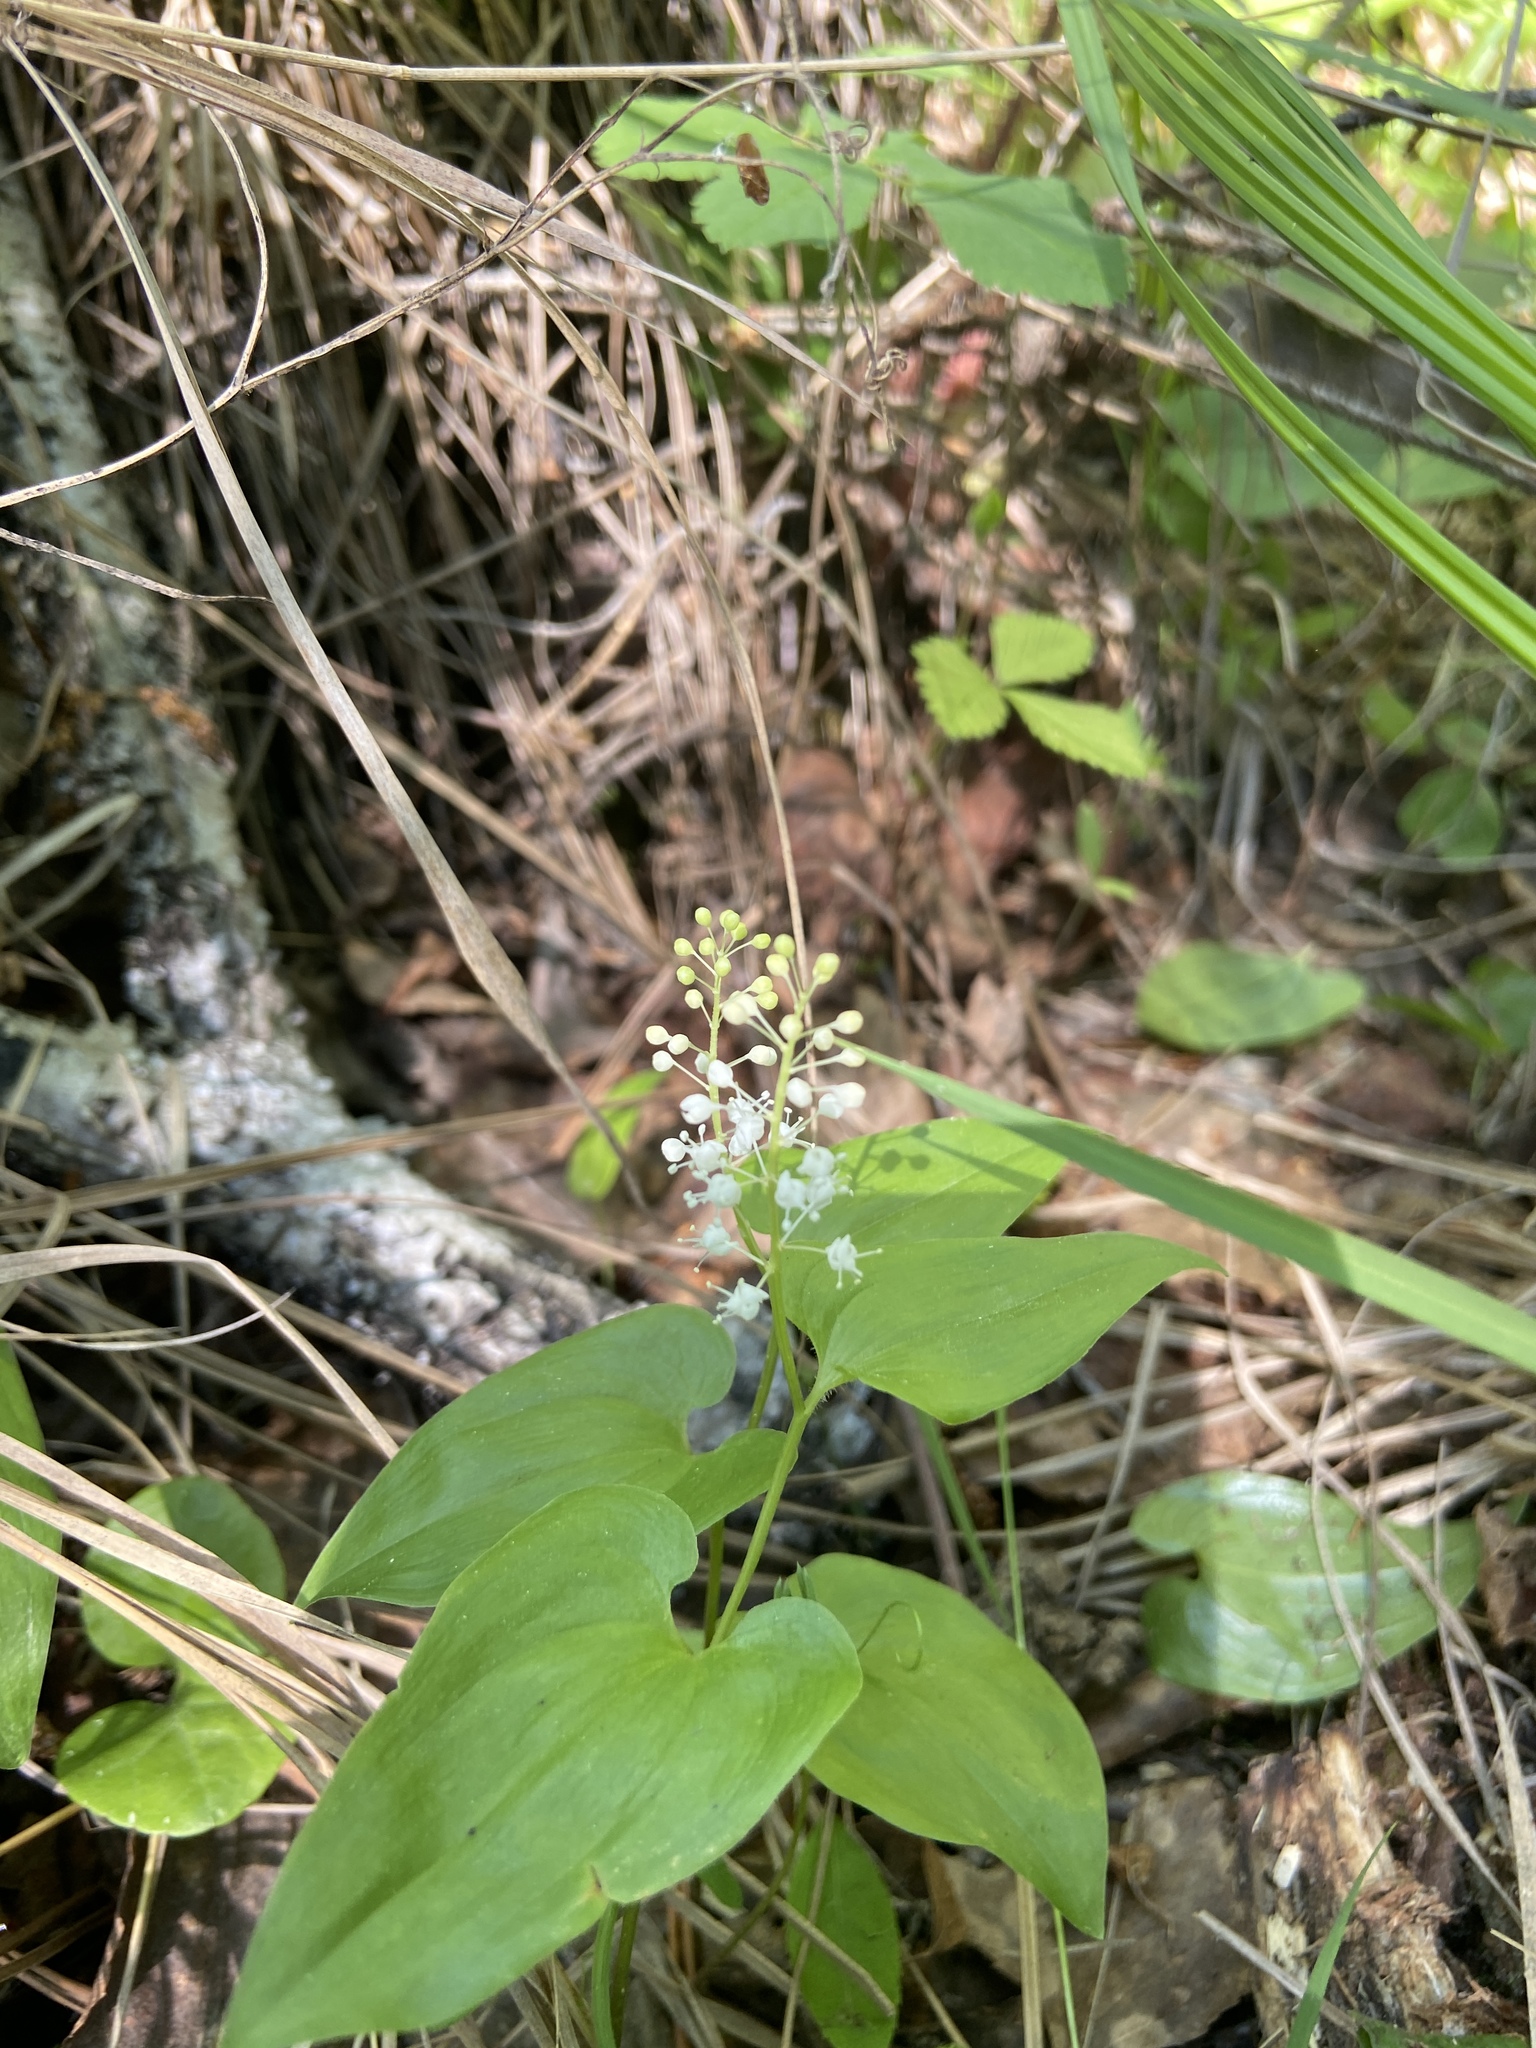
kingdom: Plantae
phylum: Tracheophyta
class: Liliopsida
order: Asparagales
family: Asparagaceae
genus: Maianthemum
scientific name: Maianthemum bifolium
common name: May lily
